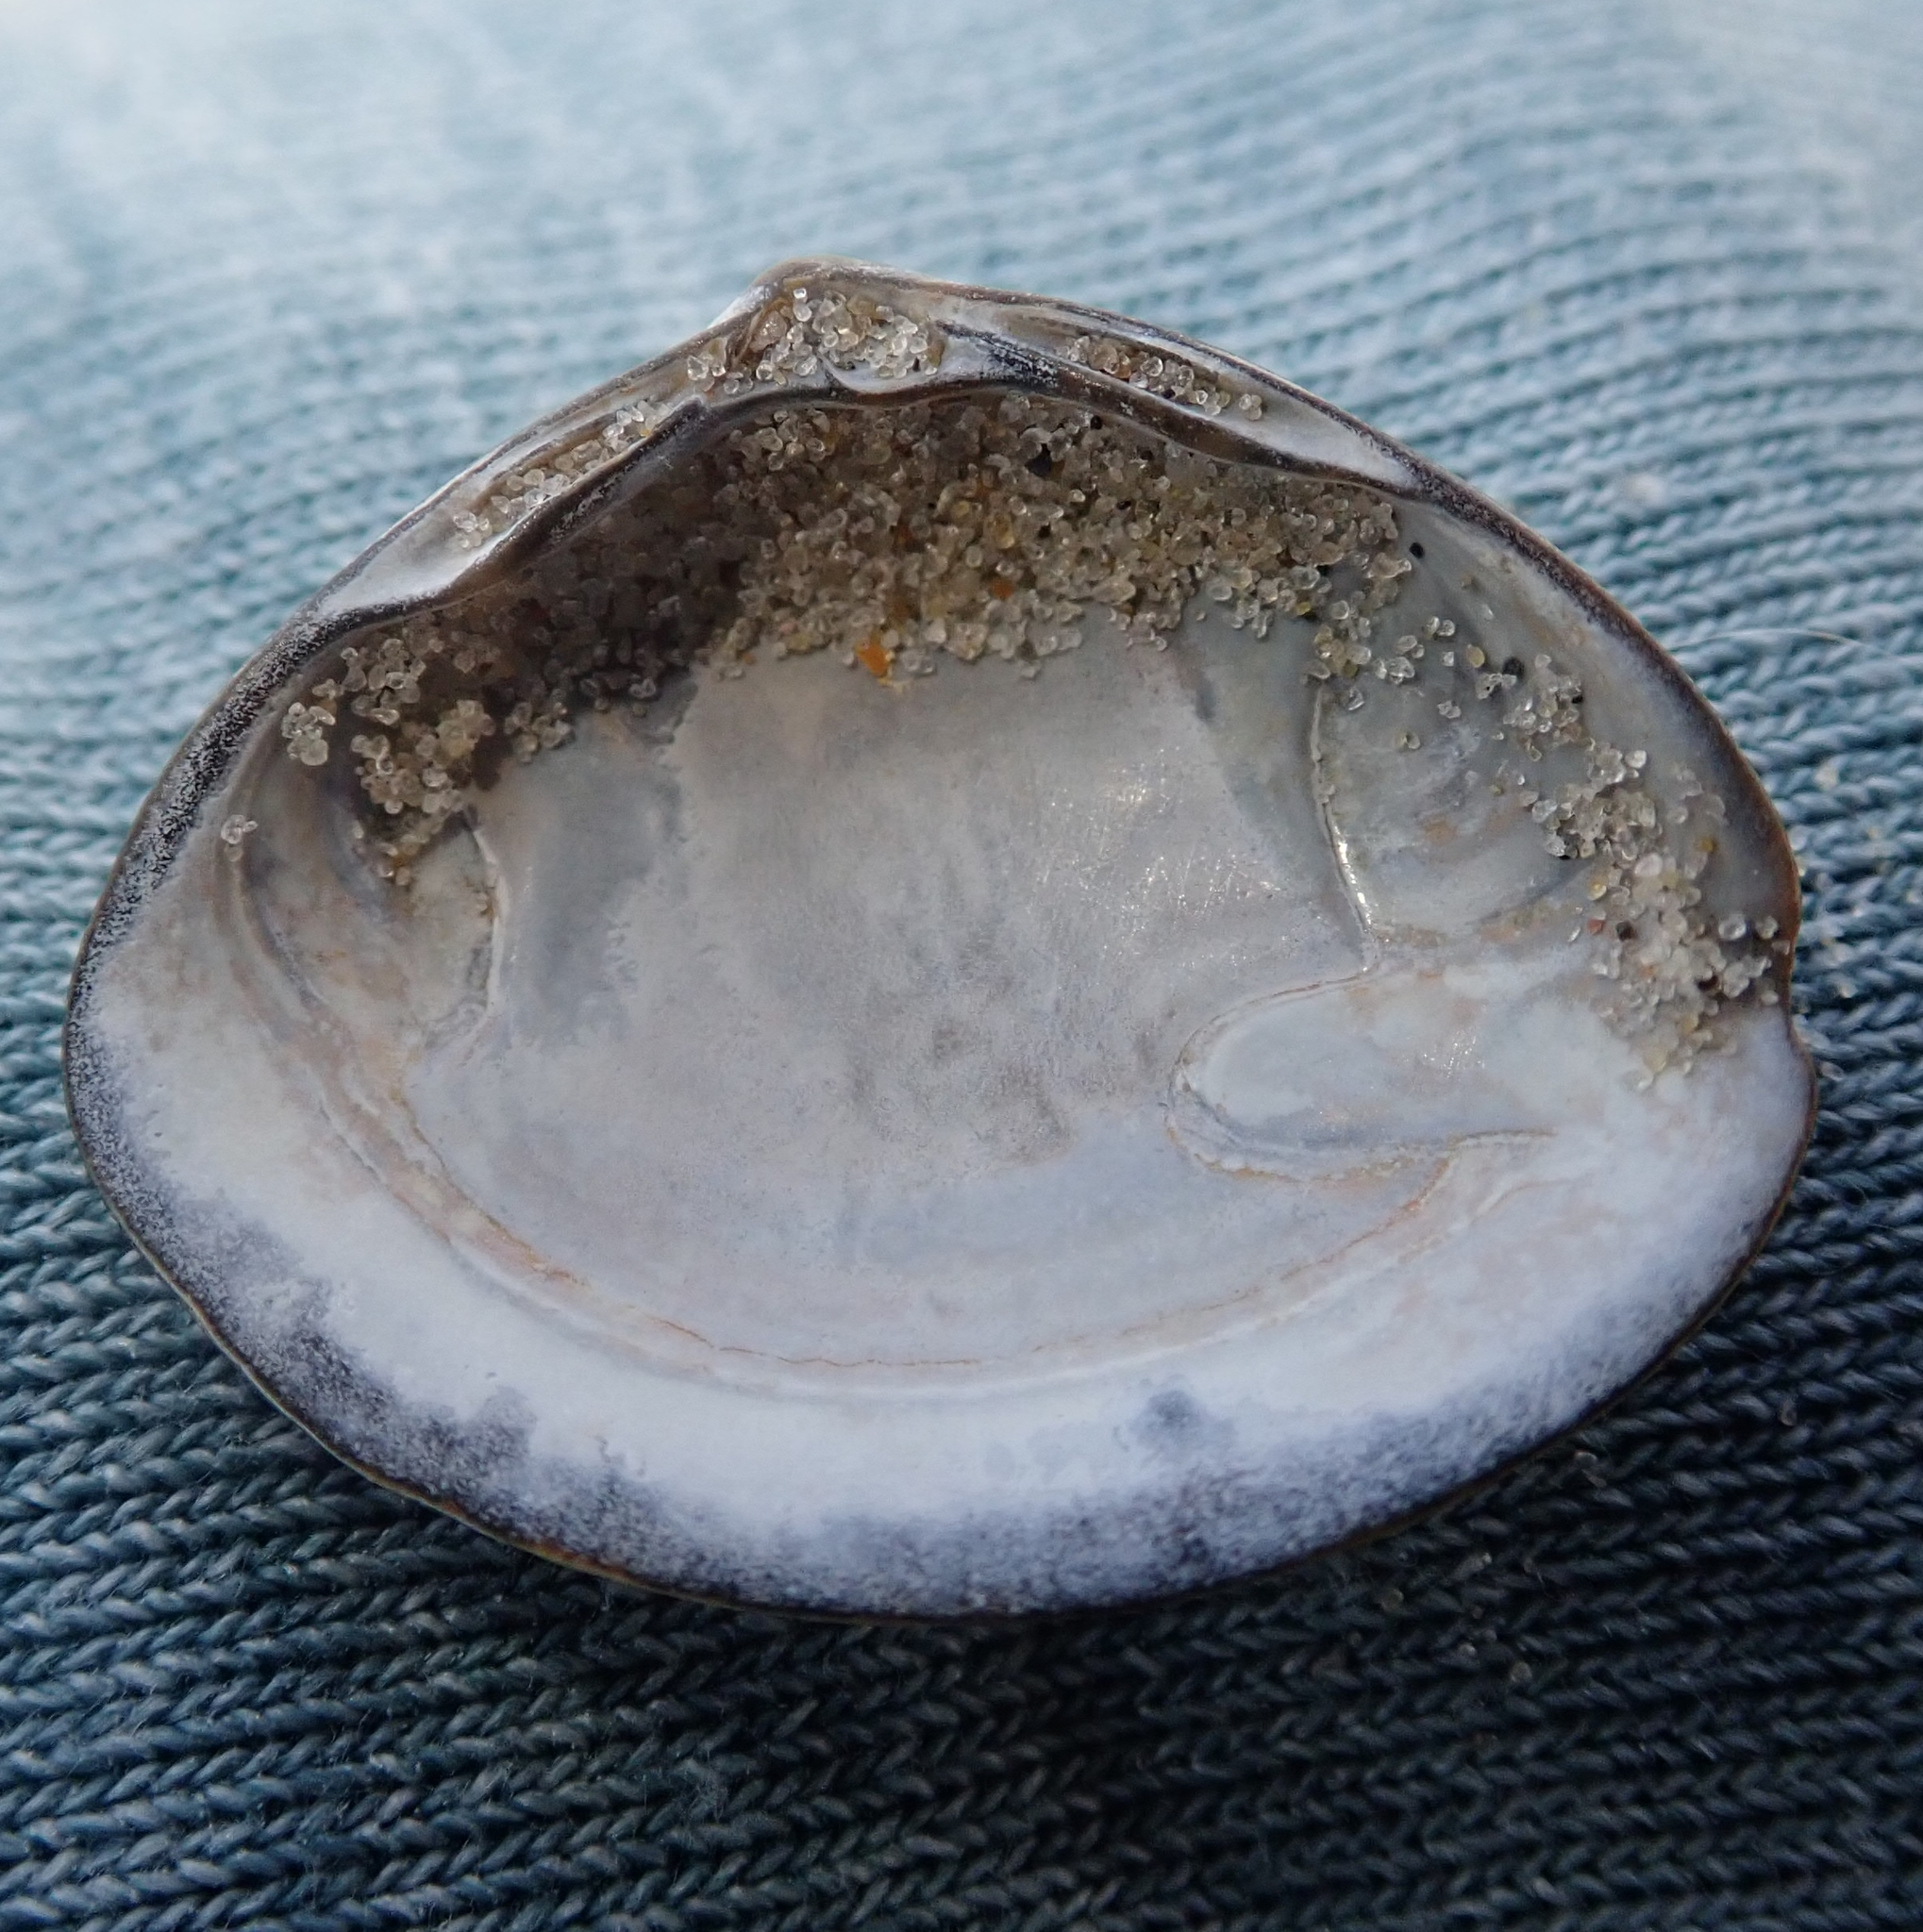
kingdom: Animalia
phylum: Mollusca
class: Bivalvia
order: Venerida
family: Mactridae
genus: Spisula
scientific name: Spisula solida
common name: Thick trough shell
